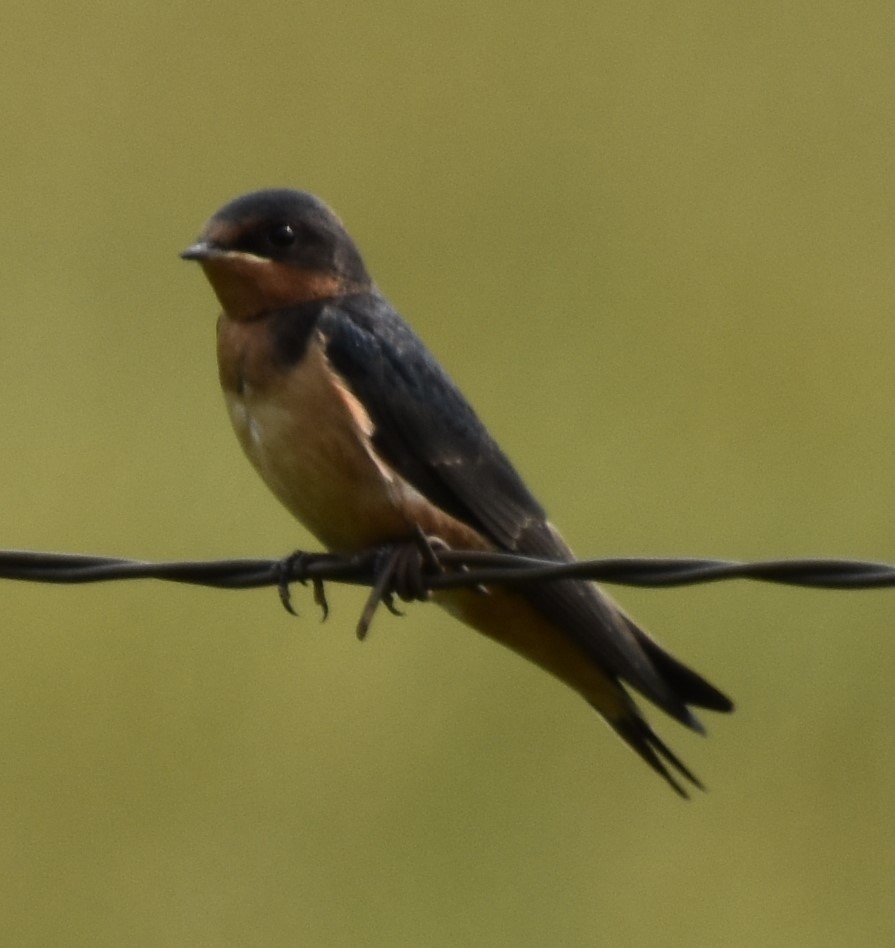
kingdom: Animalia
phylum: Chordata
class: Aves
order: Passeriformes
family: Hirundinidae
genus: Hirundo
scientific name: Hirundo rustica
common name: Barn swallow
